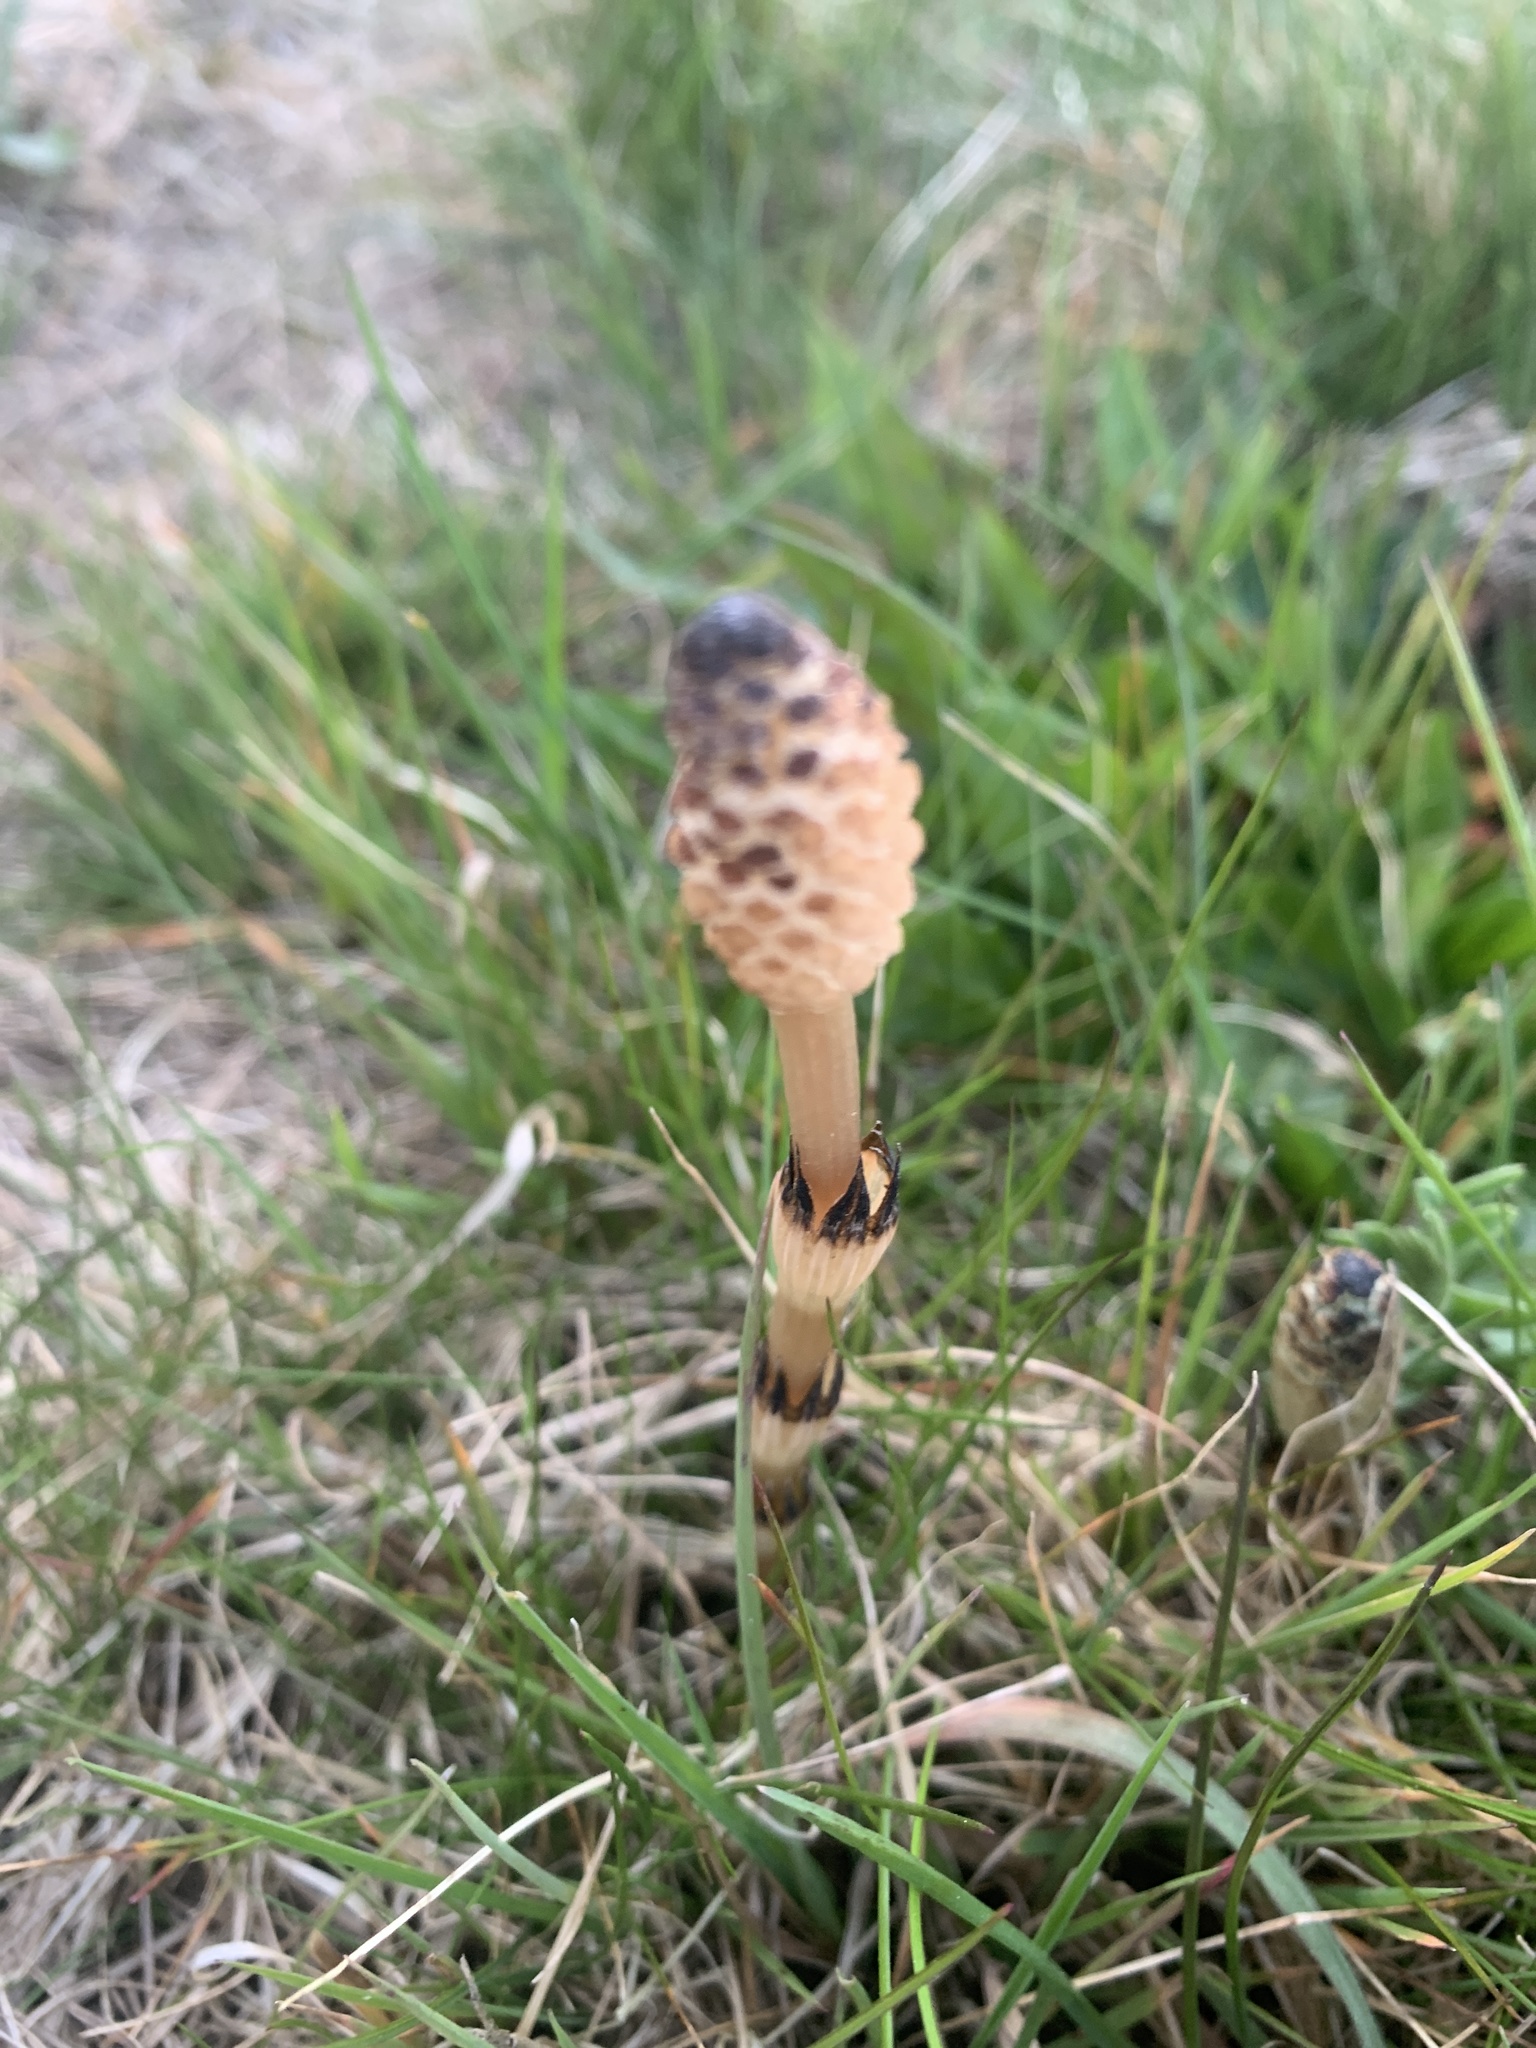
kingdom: Plantae
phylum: Tracheophyta
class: Polypodiopsida
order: Equisetales
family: Equisetaceae
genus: Equisetum
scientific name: Equisetum arvense
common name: Field horsetail
